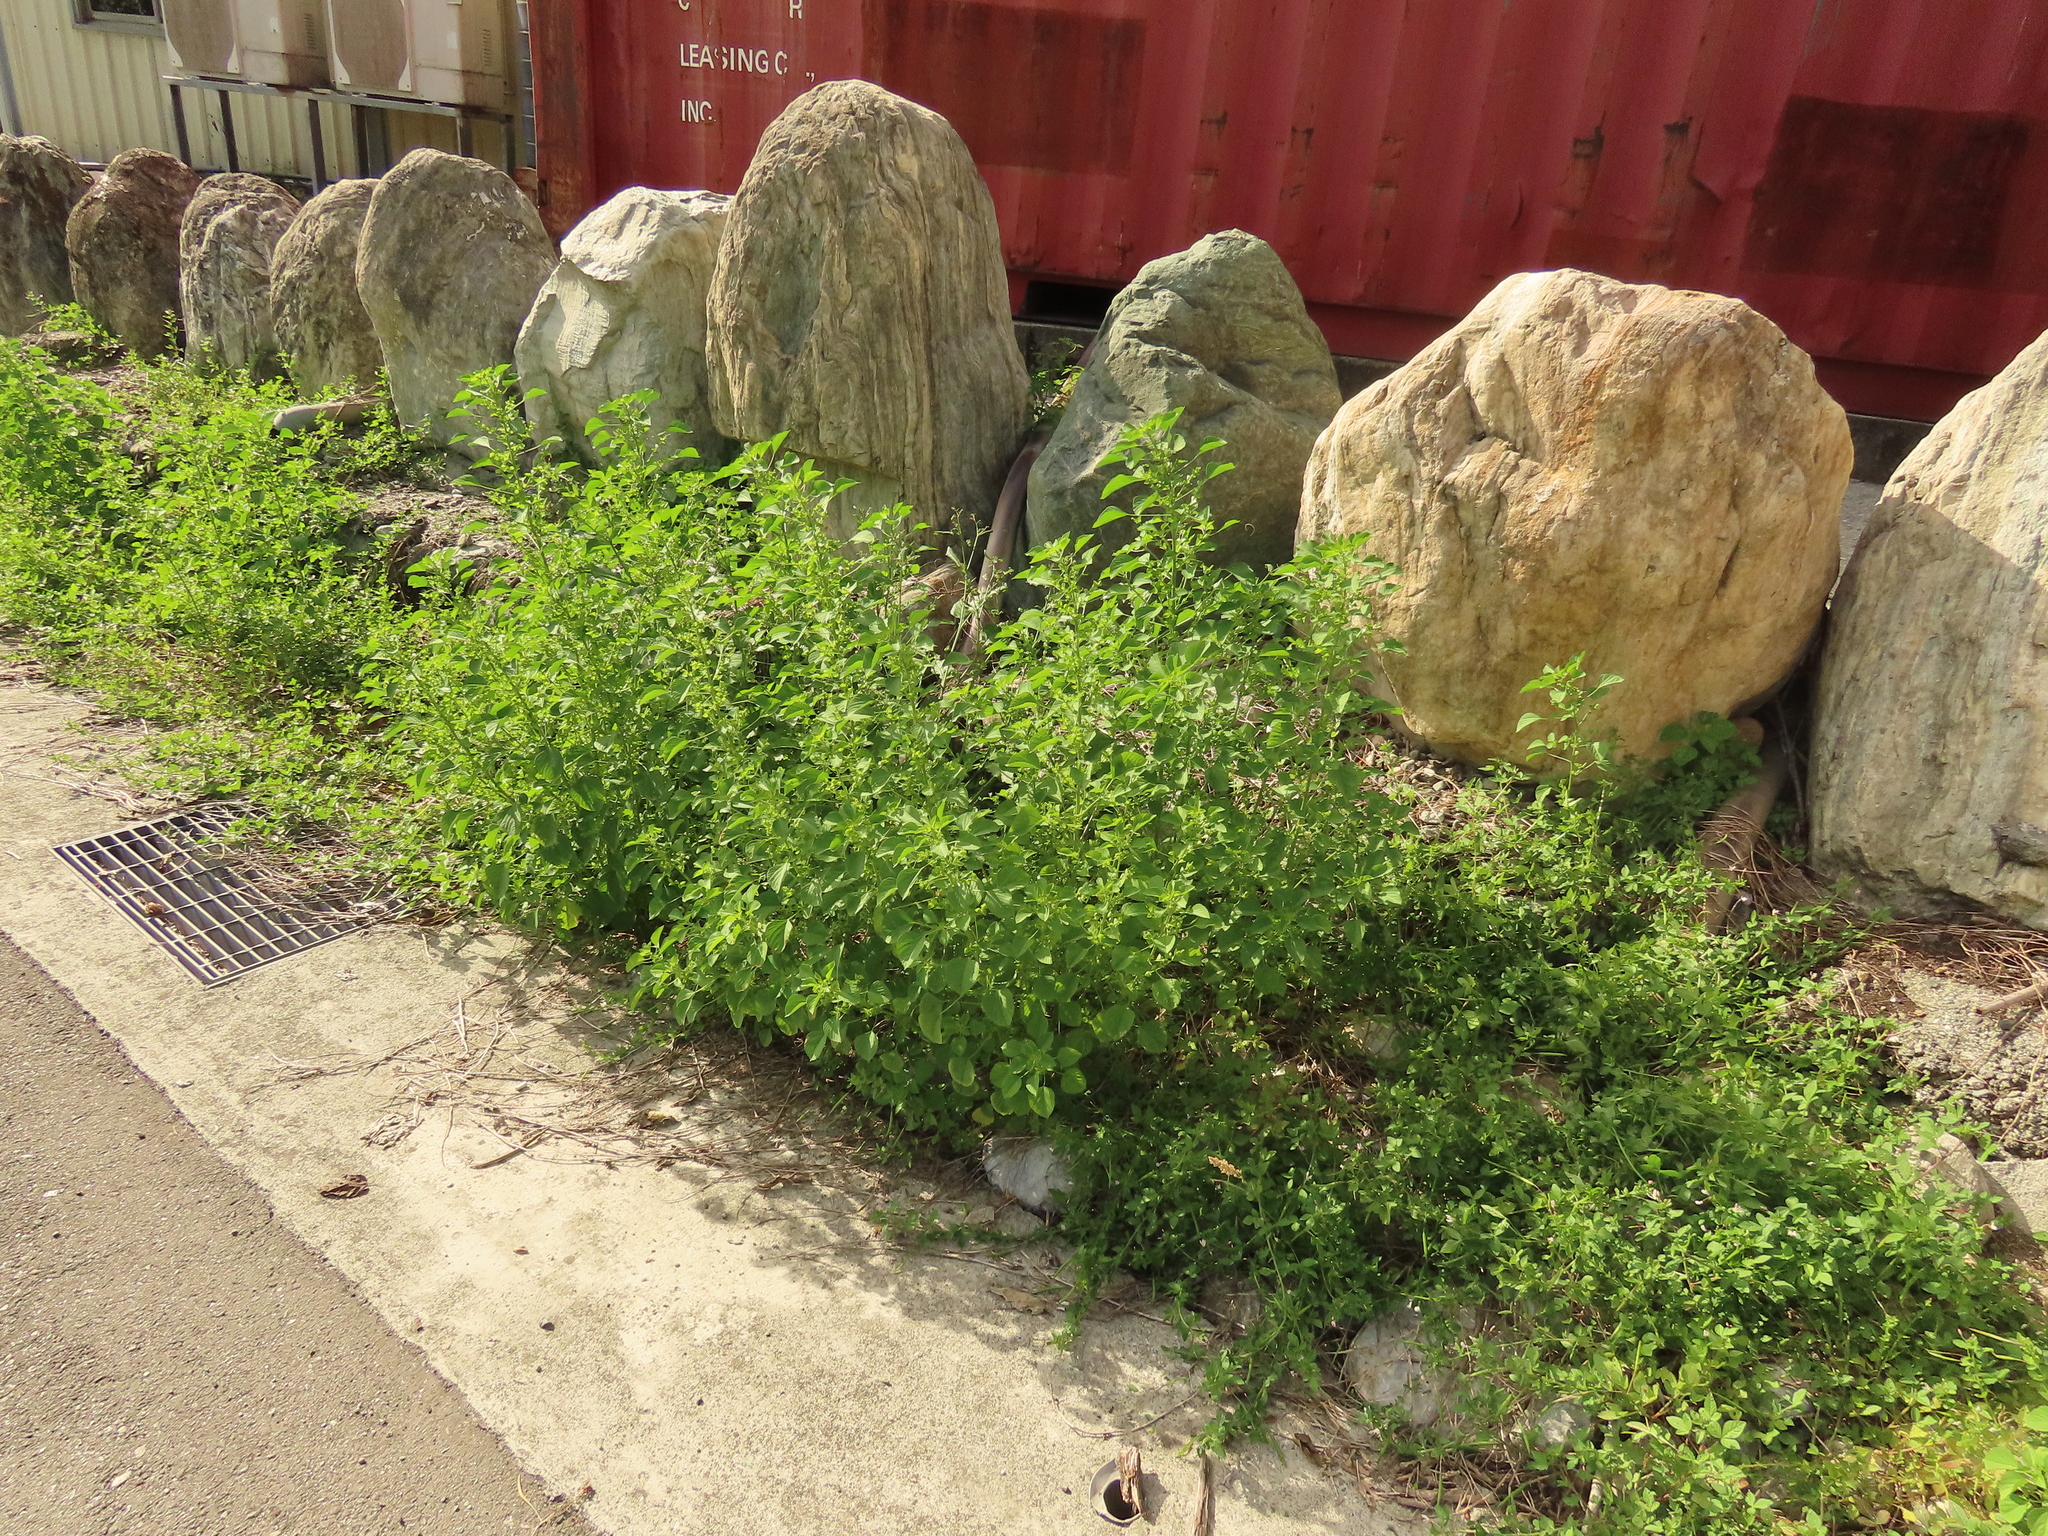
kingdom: Plantae
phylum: Tracheophyta
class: Magnoliopsida
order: Malpighiales
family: Euphorbiaceae
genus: Acalypha
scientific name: Acalypha indica
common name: Indian acalypha
